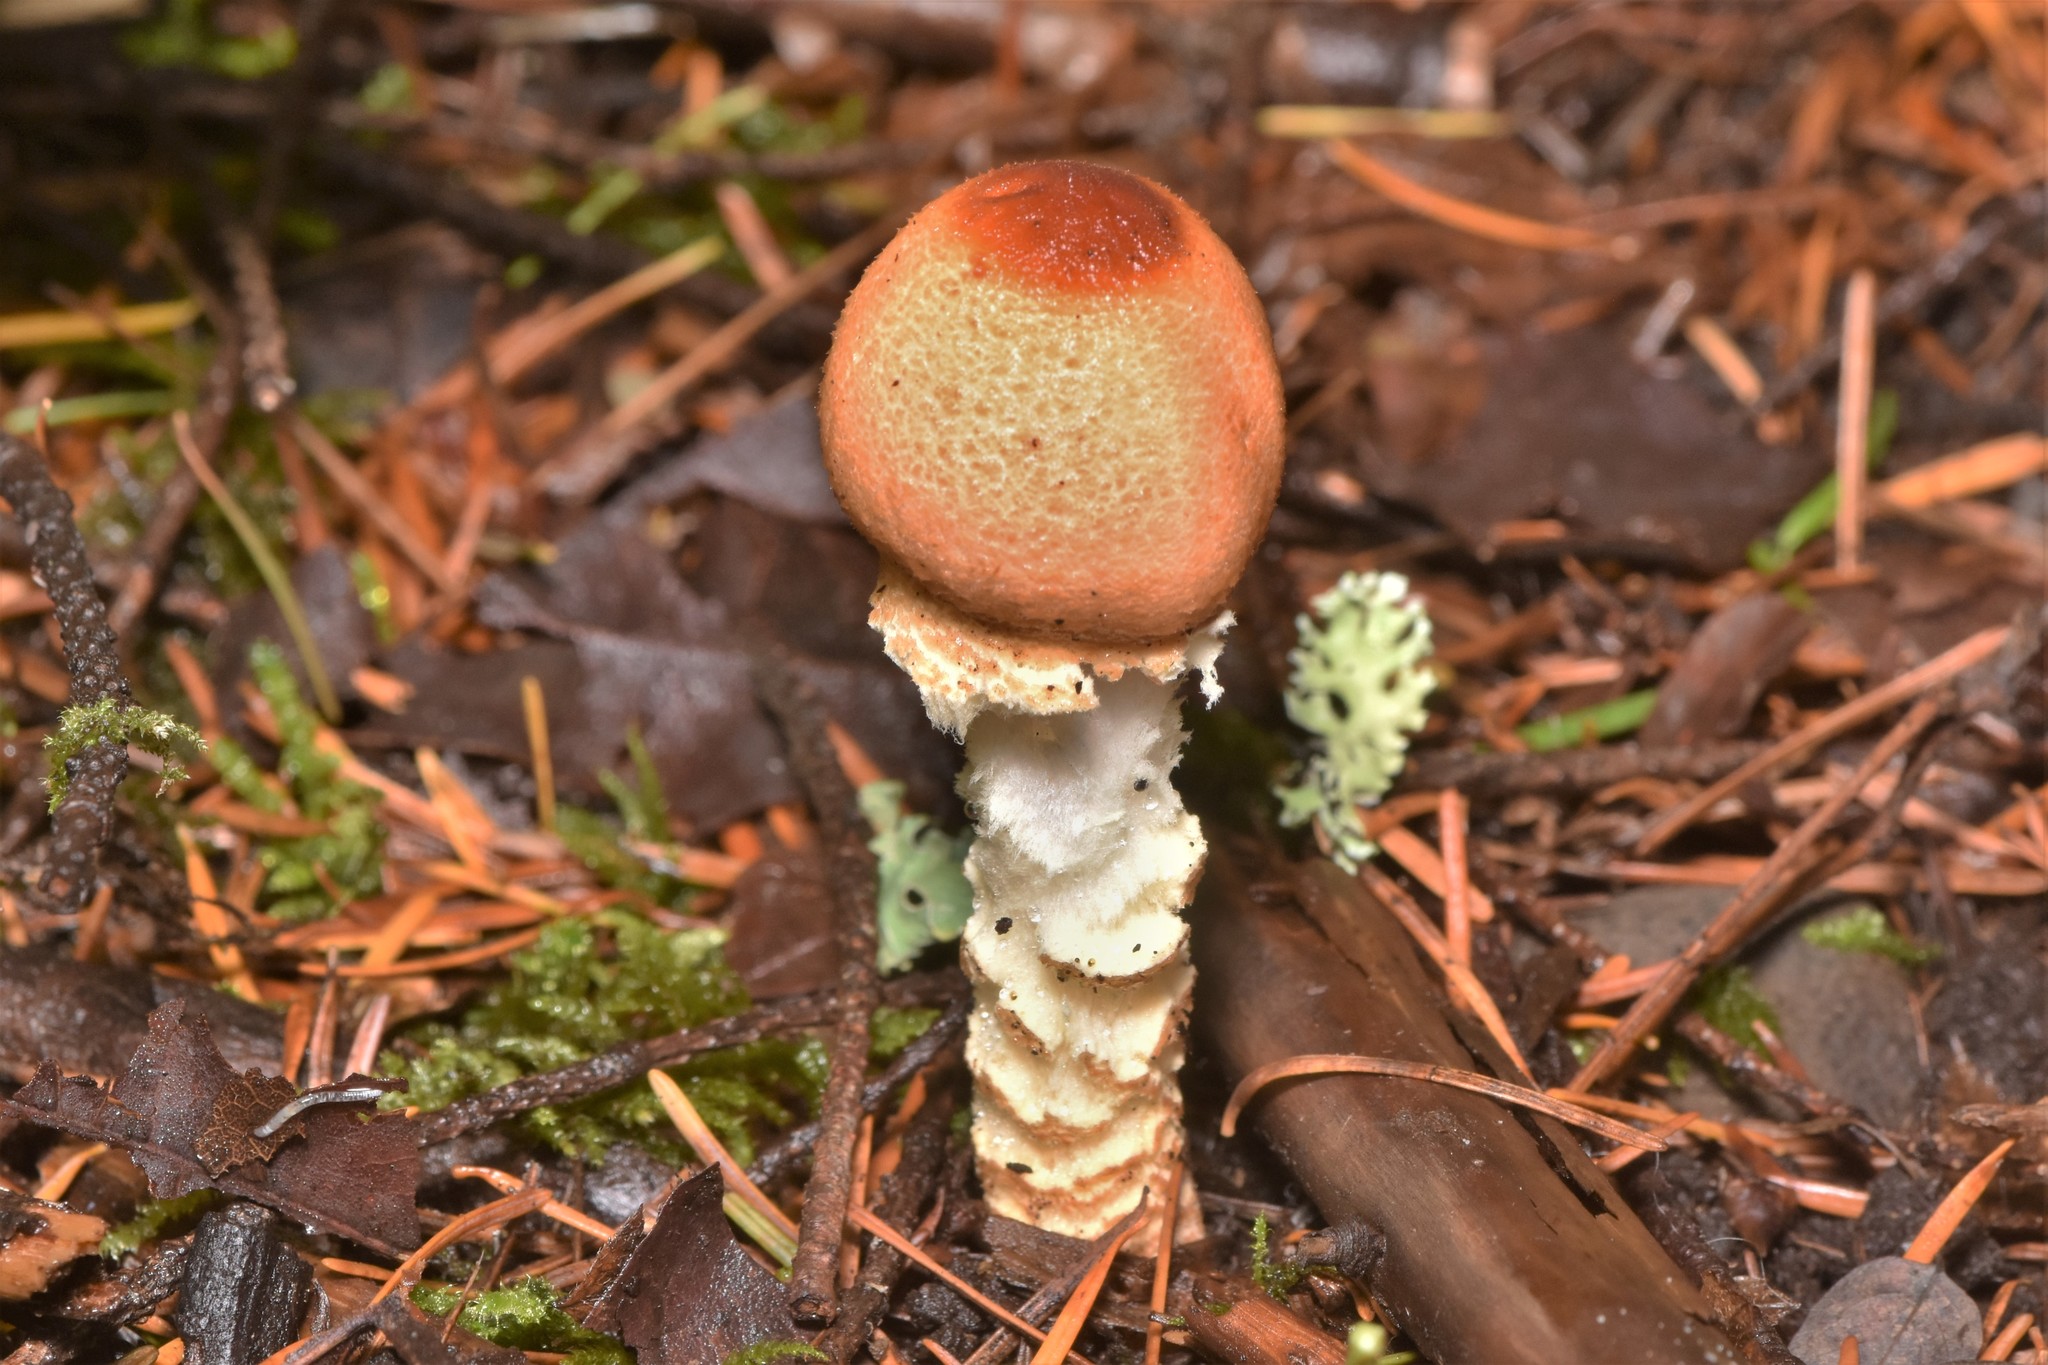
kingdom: Fungi
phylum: Basidiomycota
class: Agaricomycetes
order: Agaricales
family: Agaricaceae
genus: Lepiota
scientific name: Lepiota magnispora
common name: Yellowfoot dapperling
